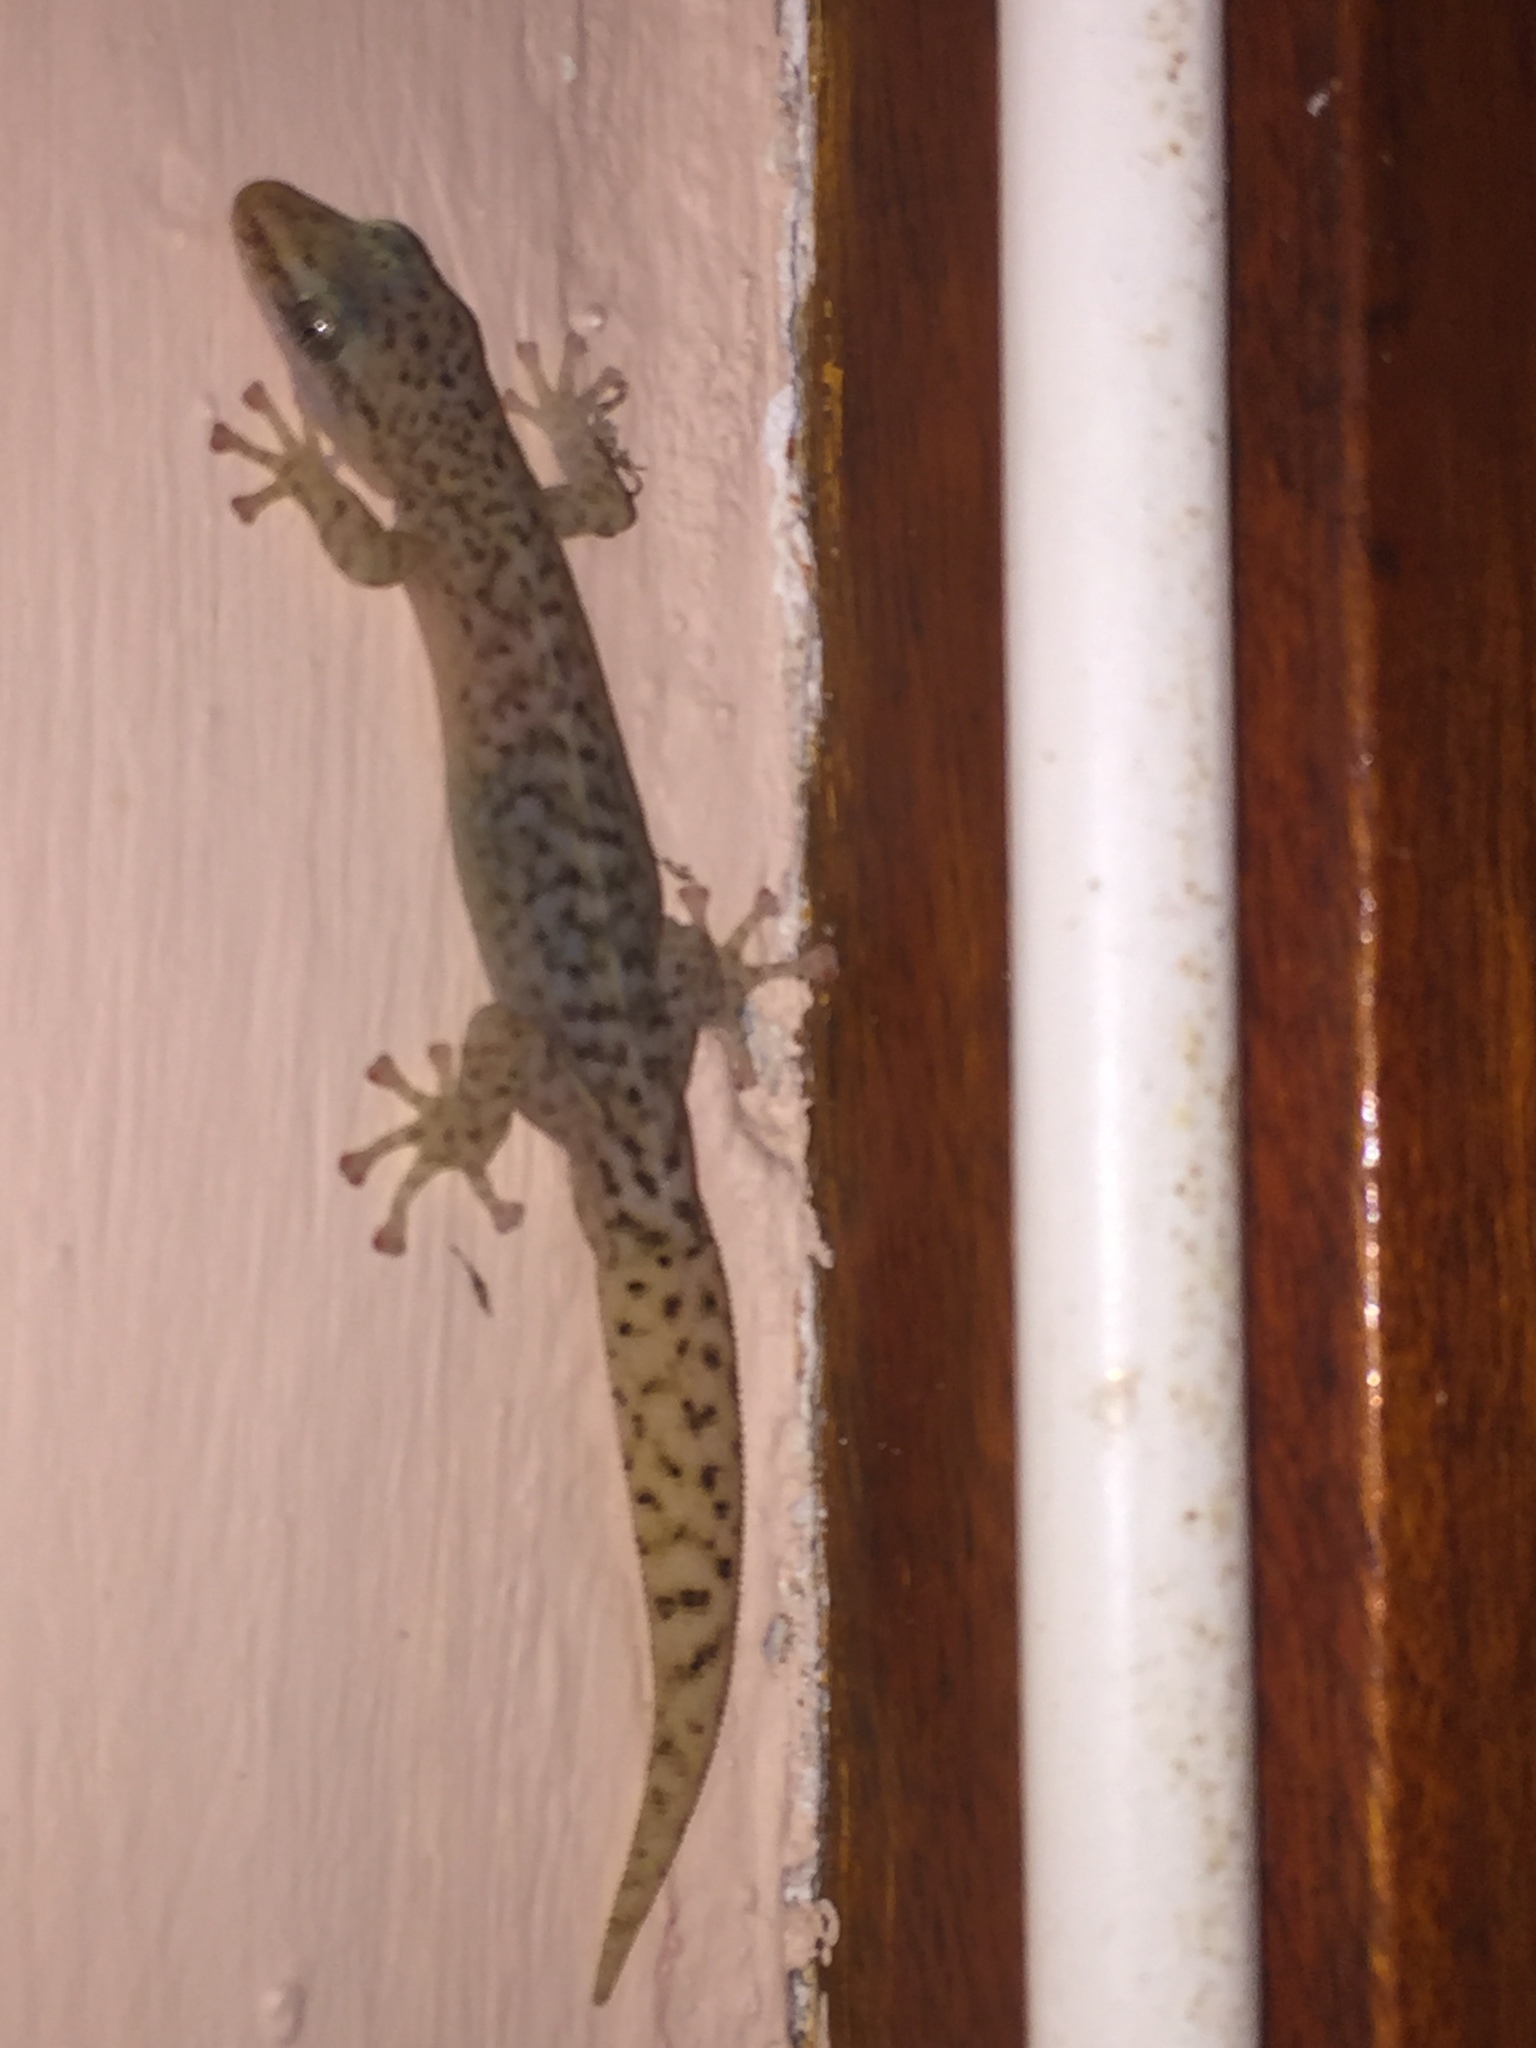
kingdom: Animalia
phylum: Chordata
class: Squamata
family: Gekkonidae
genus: Afrogecko
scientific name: Afrogecko porphyreus
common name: Marbled leaf-toed gecko
